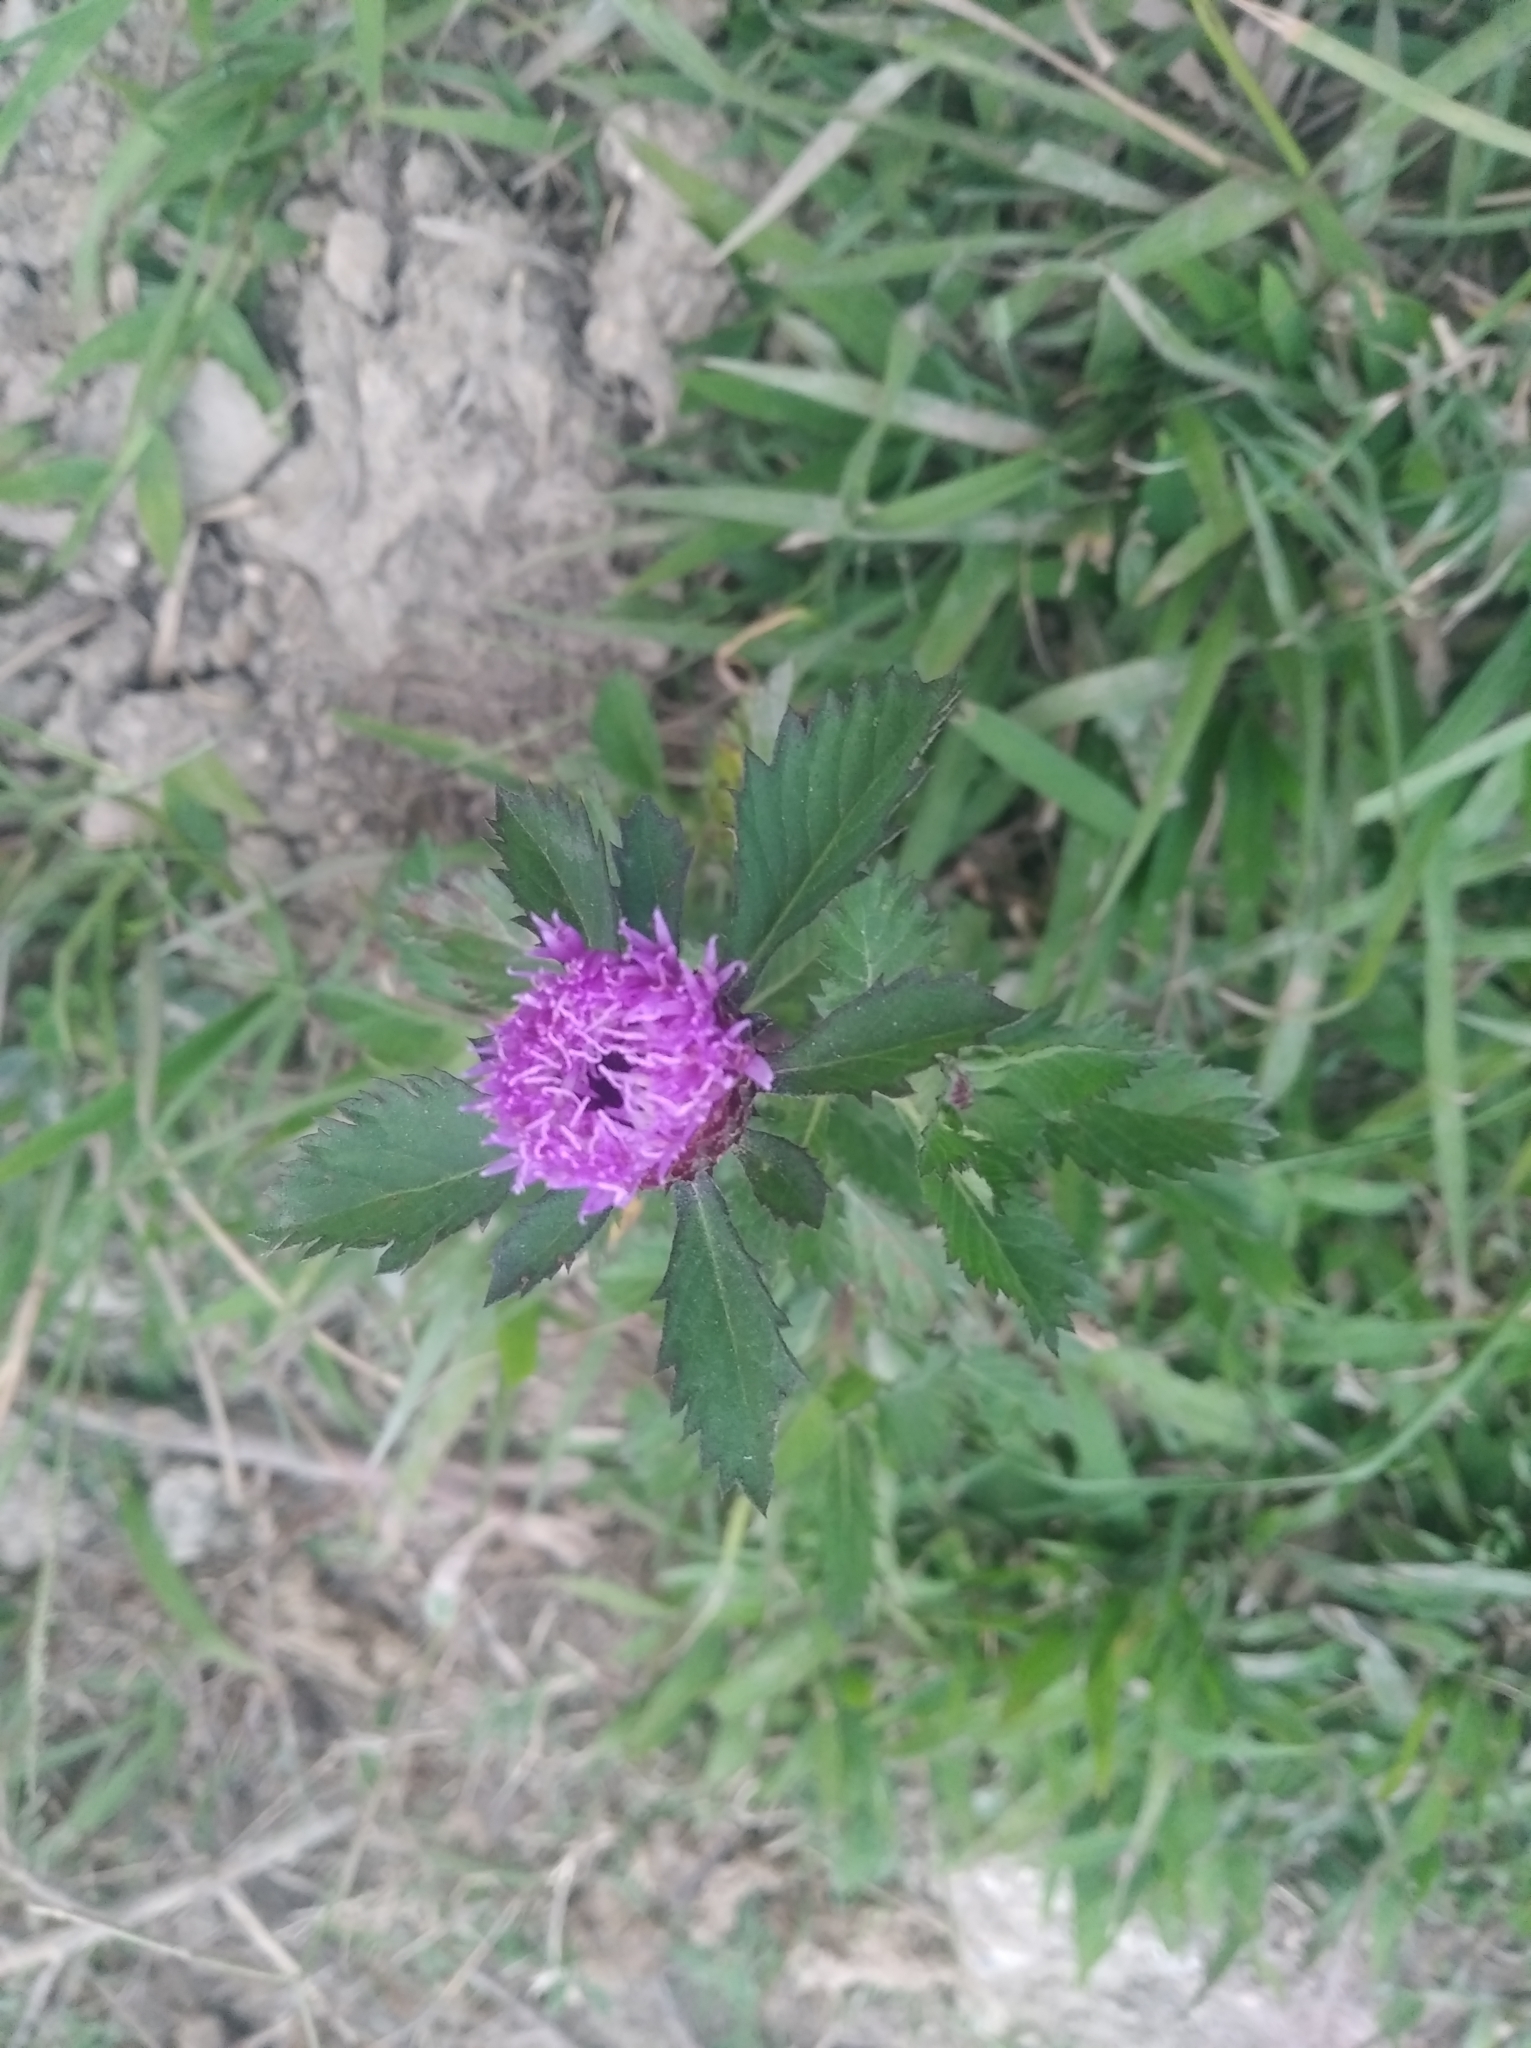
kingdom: Plantae
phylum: Tracheophyta
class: Magnoliopsida
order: Asterales
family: Asteraceae
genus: Centratherum
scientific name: Centratherum punctatum
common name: Larkdaisy
